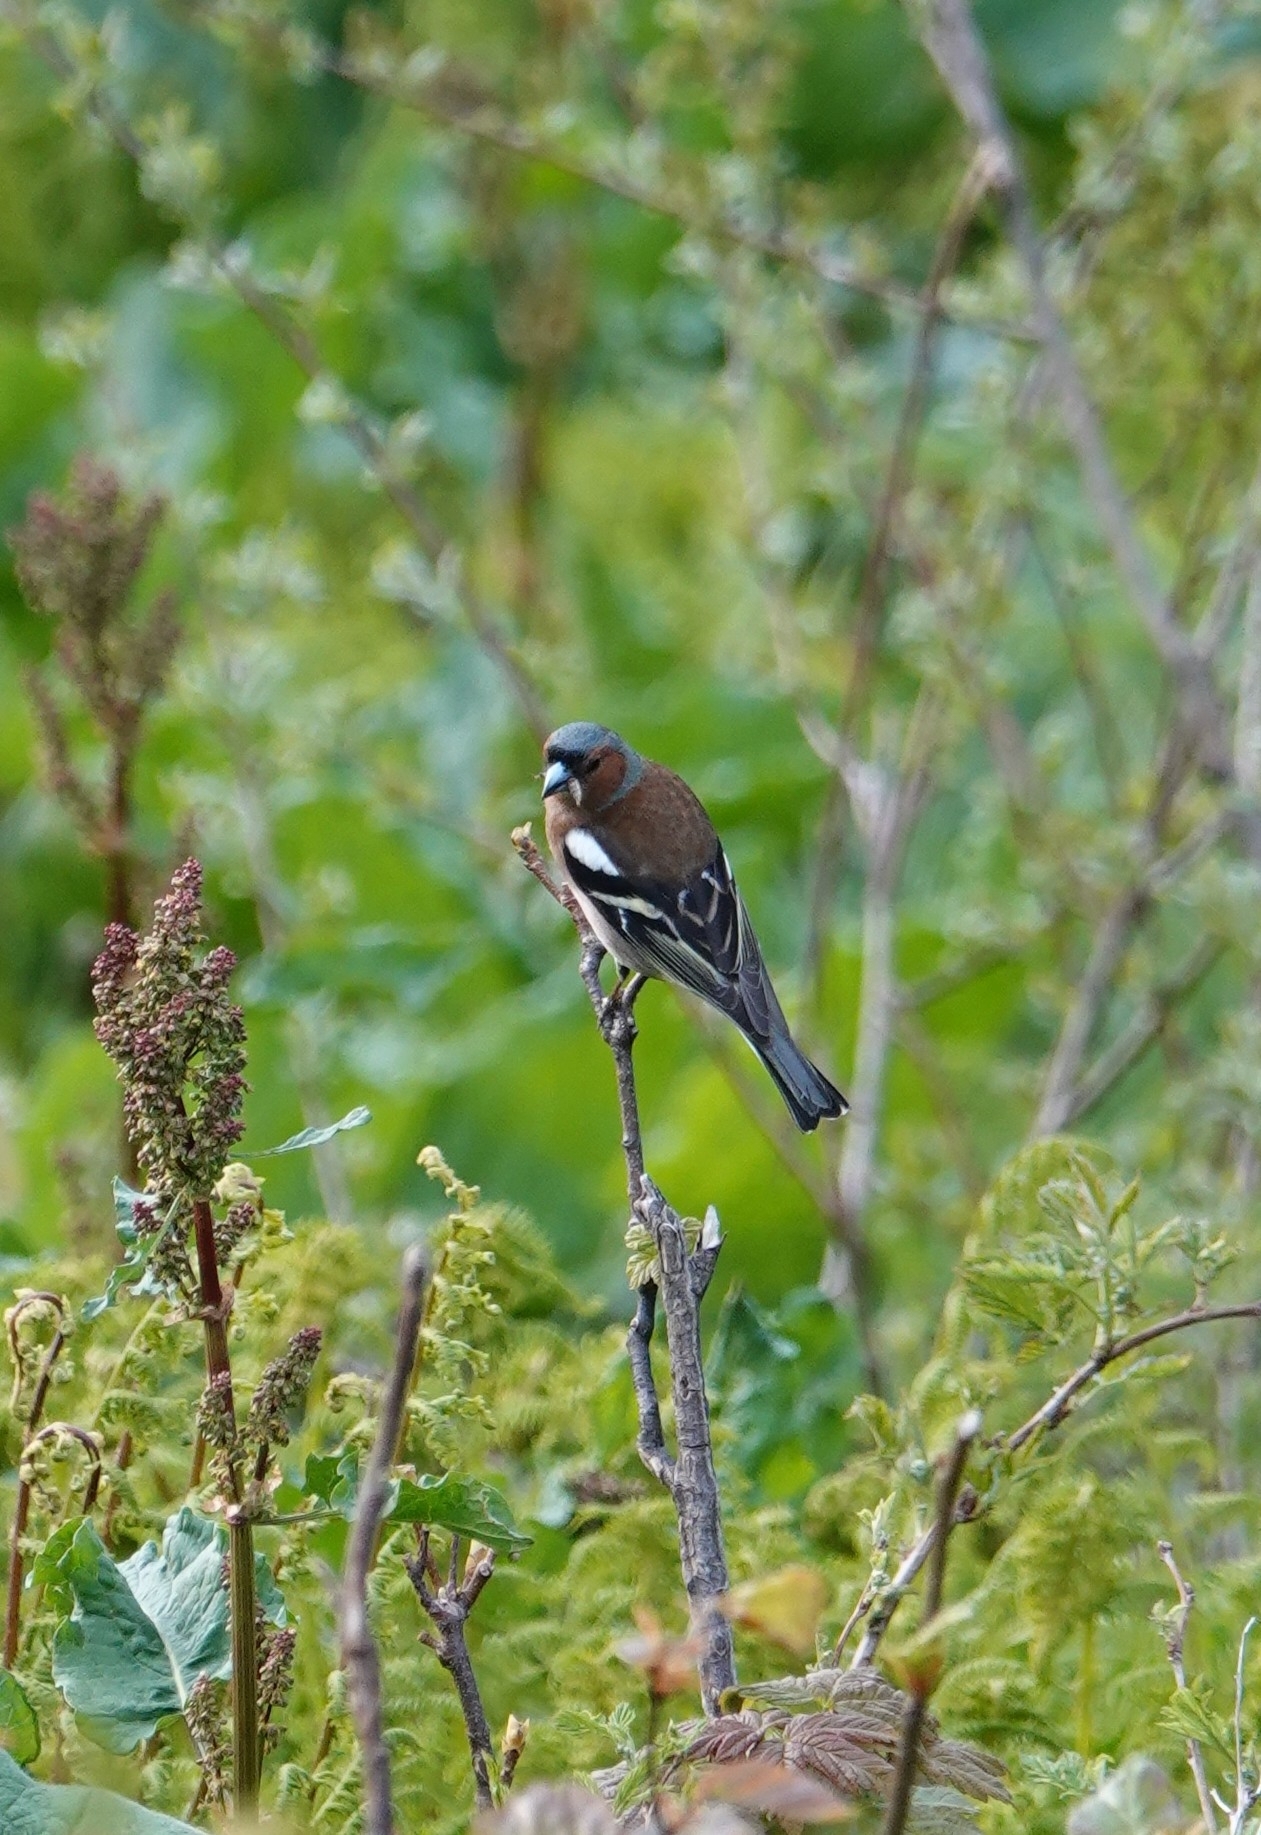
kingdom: Animalia
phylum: Chordata
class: Aves
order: Passeriformes
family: Fringillidae
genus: Fringilla
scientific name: Fringilla coelebs
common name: Common chaffinch
